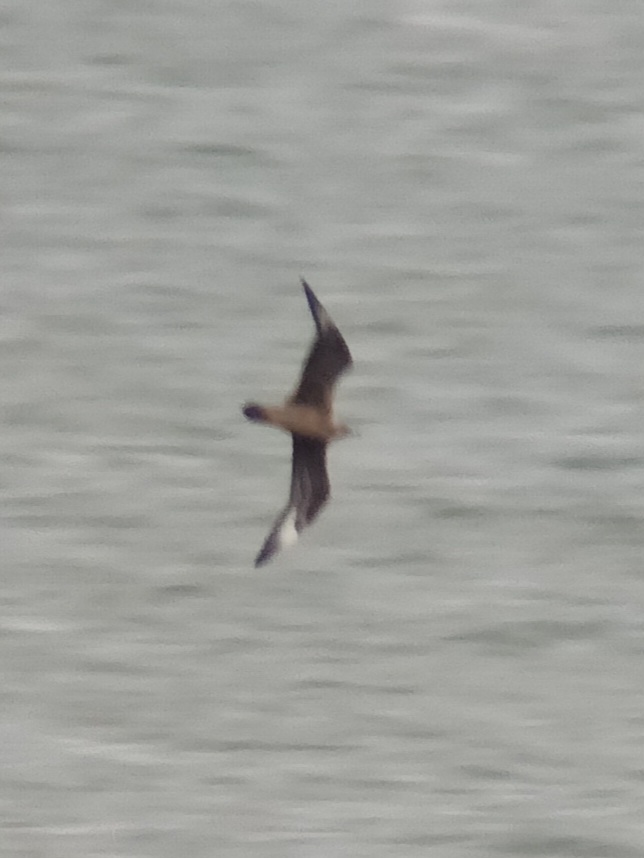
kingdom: Animalia
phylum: Chordata
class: Aves
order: Charadriiformes
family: Stercorariidae
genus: Stercorarius
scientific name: Stercorarius parasiticus
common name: Parasitic jaeger
